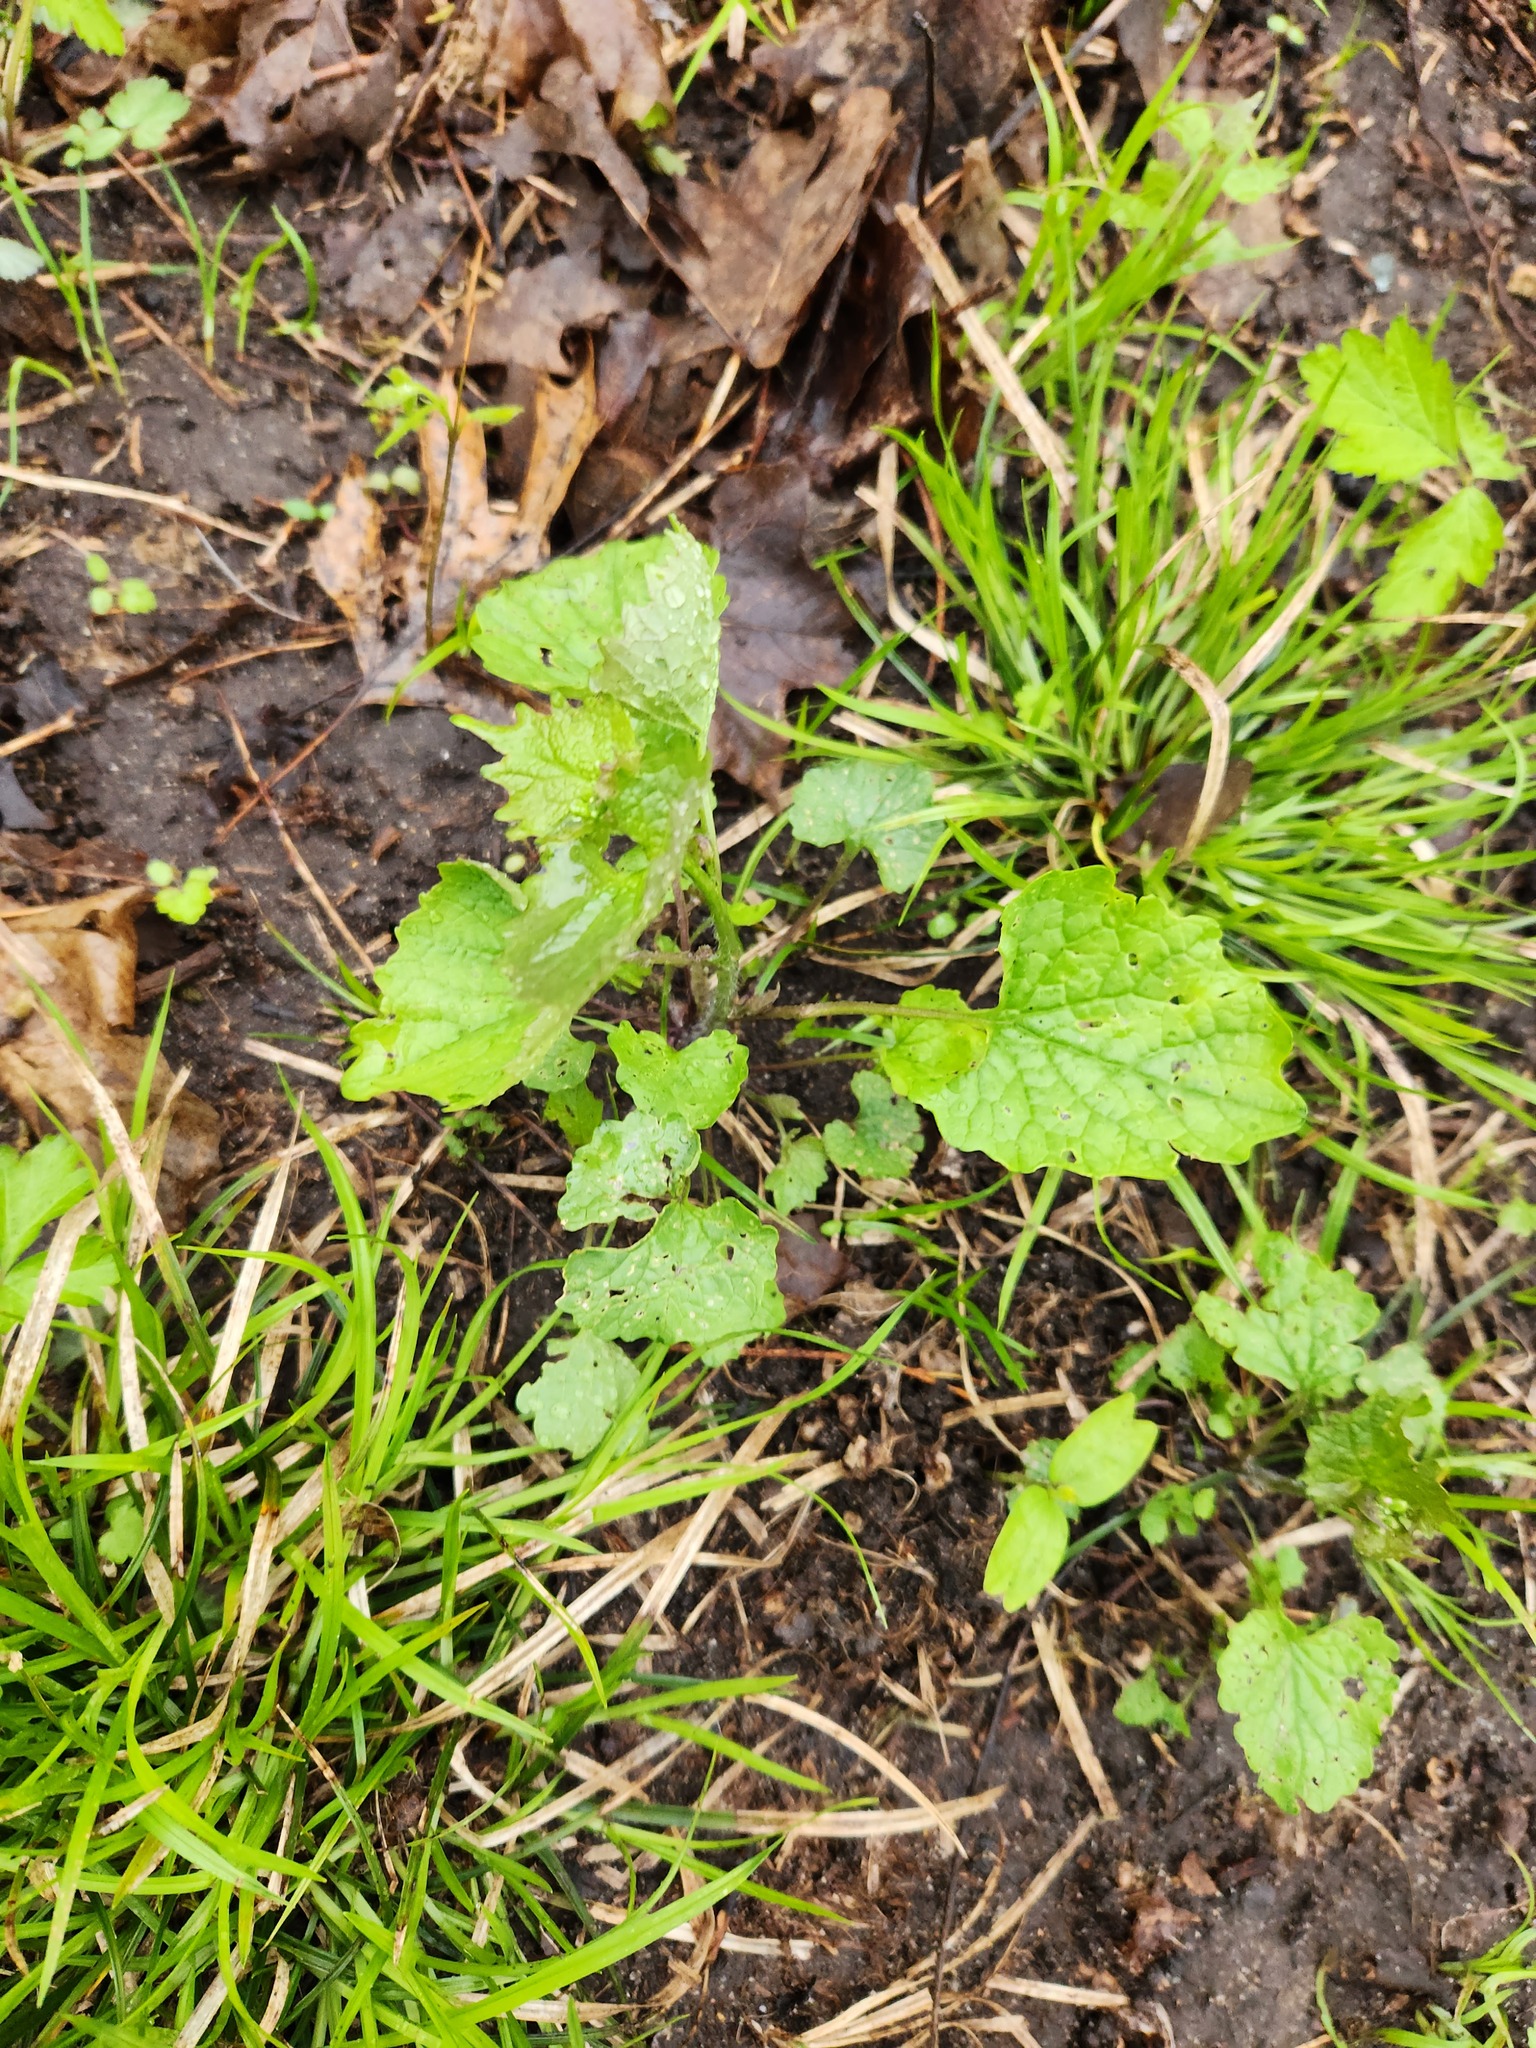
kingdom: Plantae
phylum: Tracheophyta
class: Magnoliopsida
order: Brassicales
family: Brassicaceae
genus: Alliaria
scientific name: Alliaria petiolata
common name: Garlic mustard
